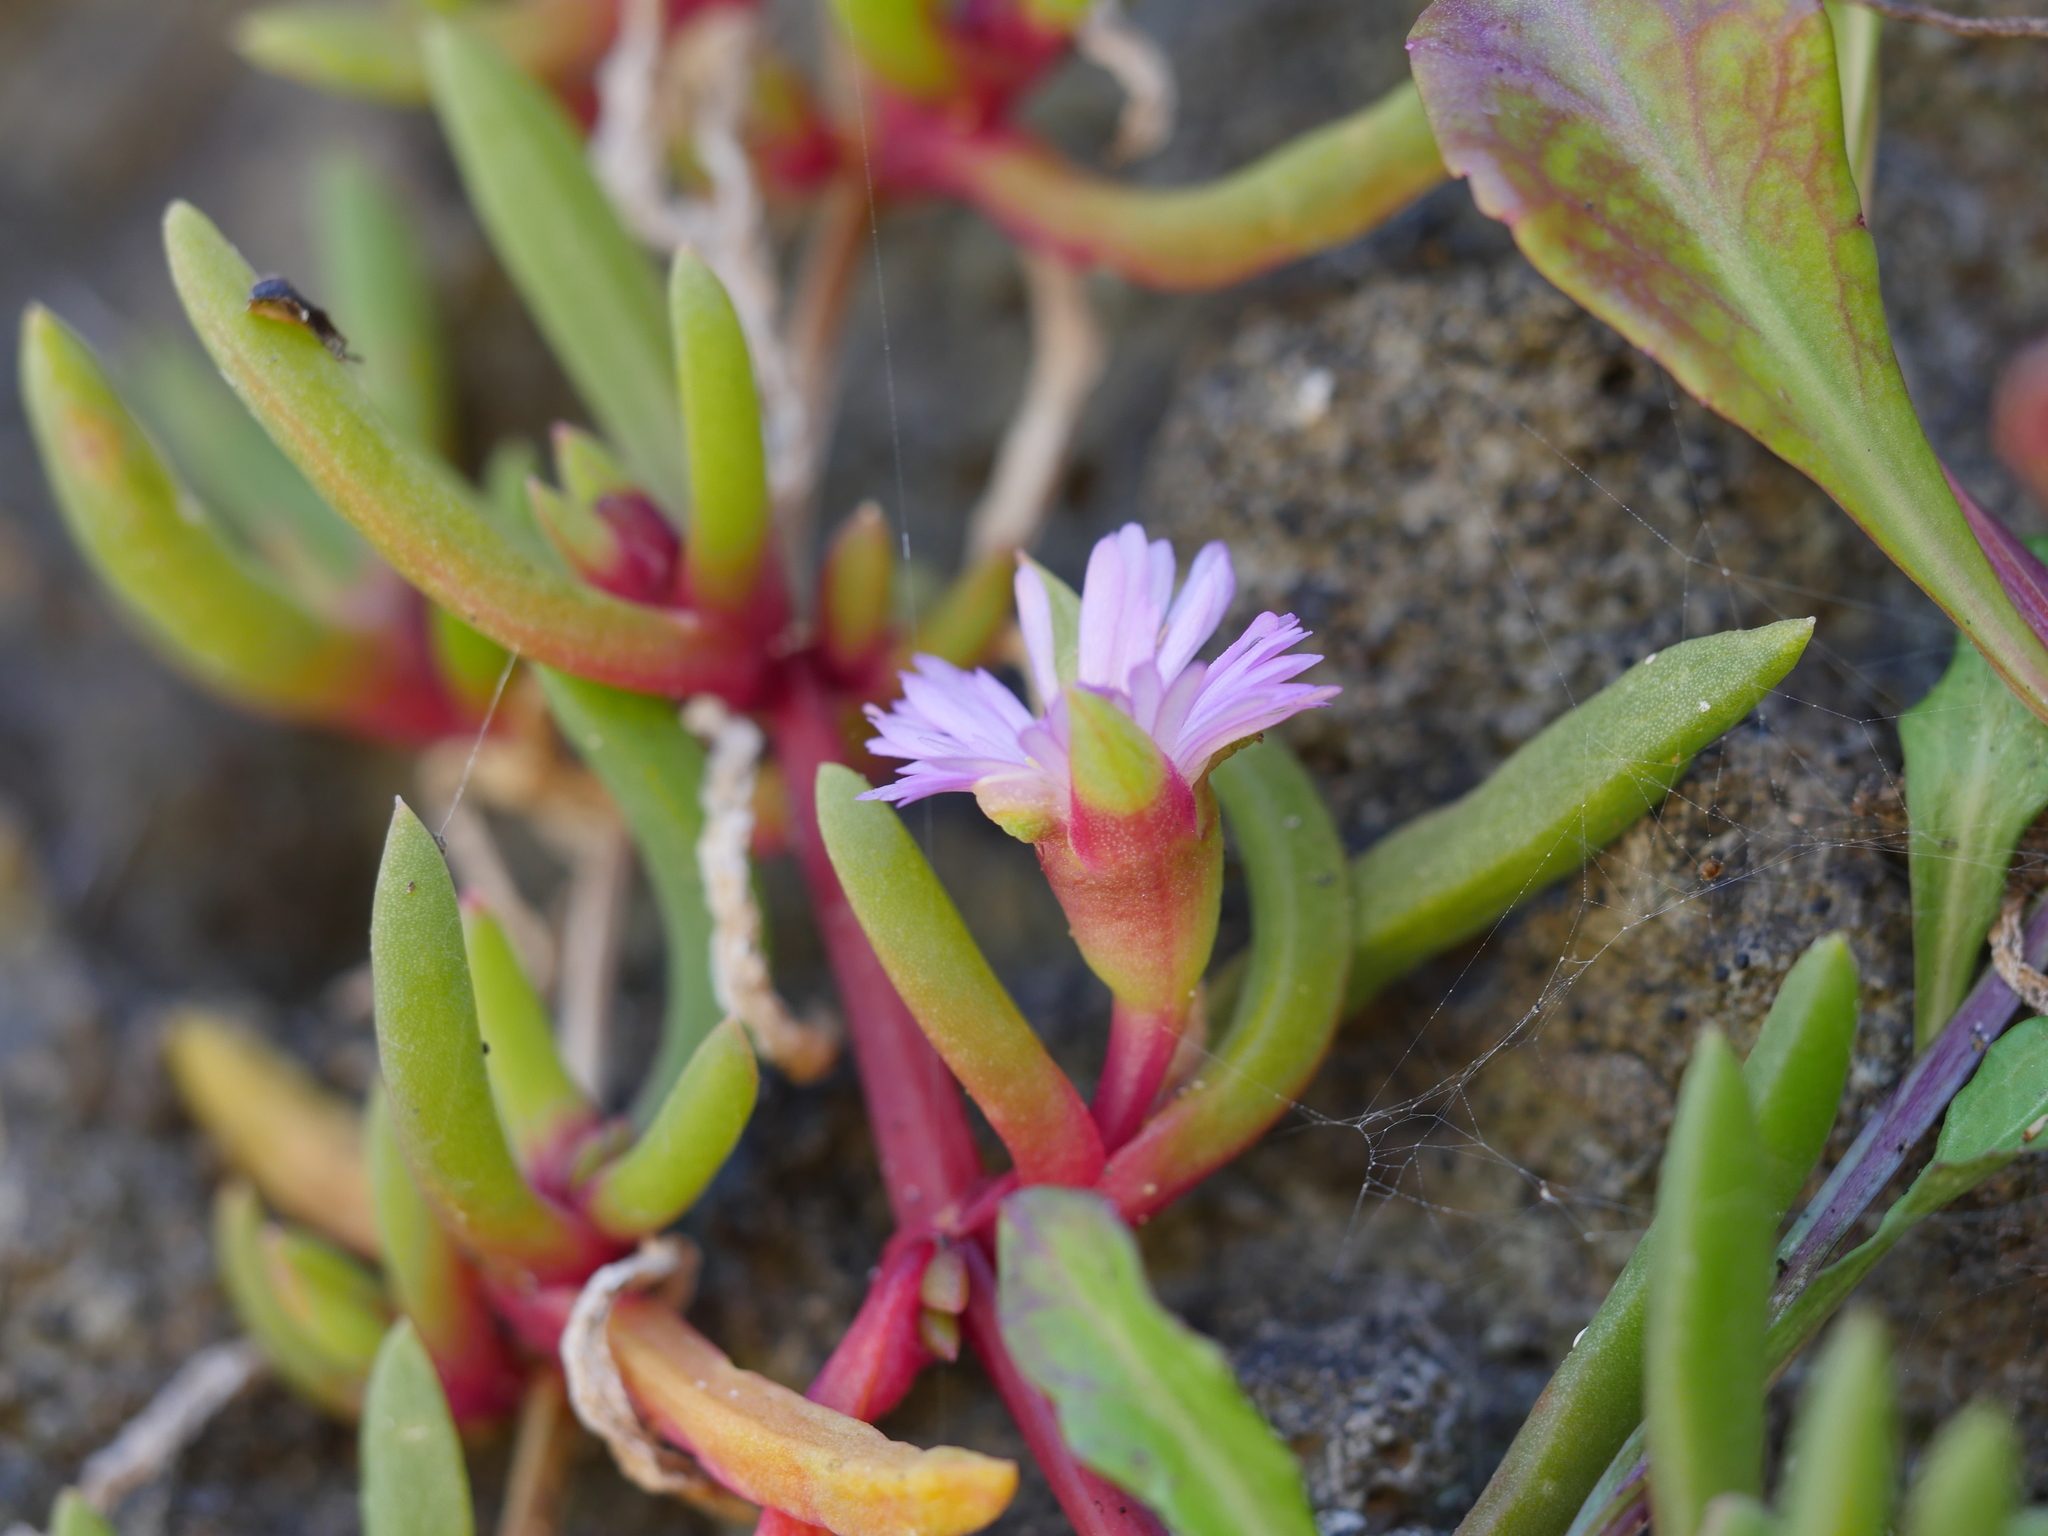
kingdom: Plantae
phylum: Tracheophyta
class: Magnoliopsida
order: Caryophyllales
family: Aizoaceae
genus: Disphyma
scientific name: Disphyma australe
